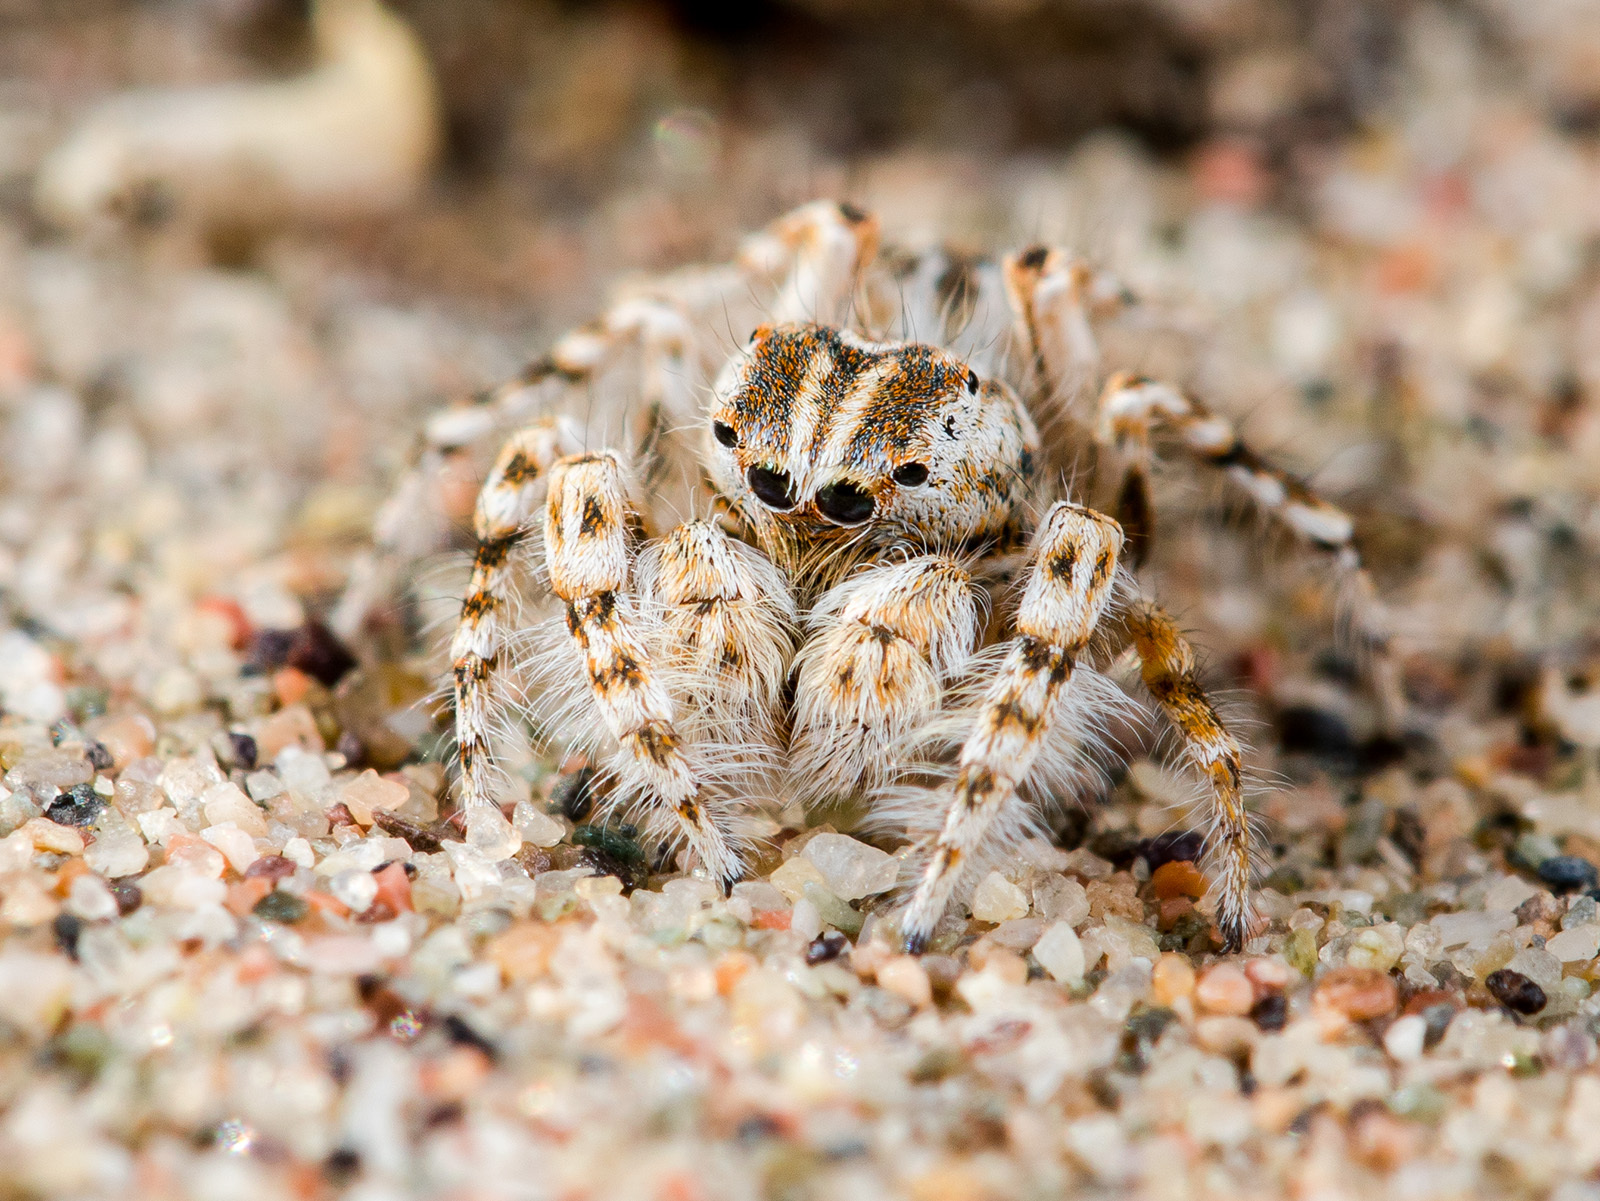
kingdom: Animalia
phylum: Arthropoda
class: Arachnida
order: Araneae
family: Salticidae
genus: Yllenus
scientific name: Yllenus turkestanicus
